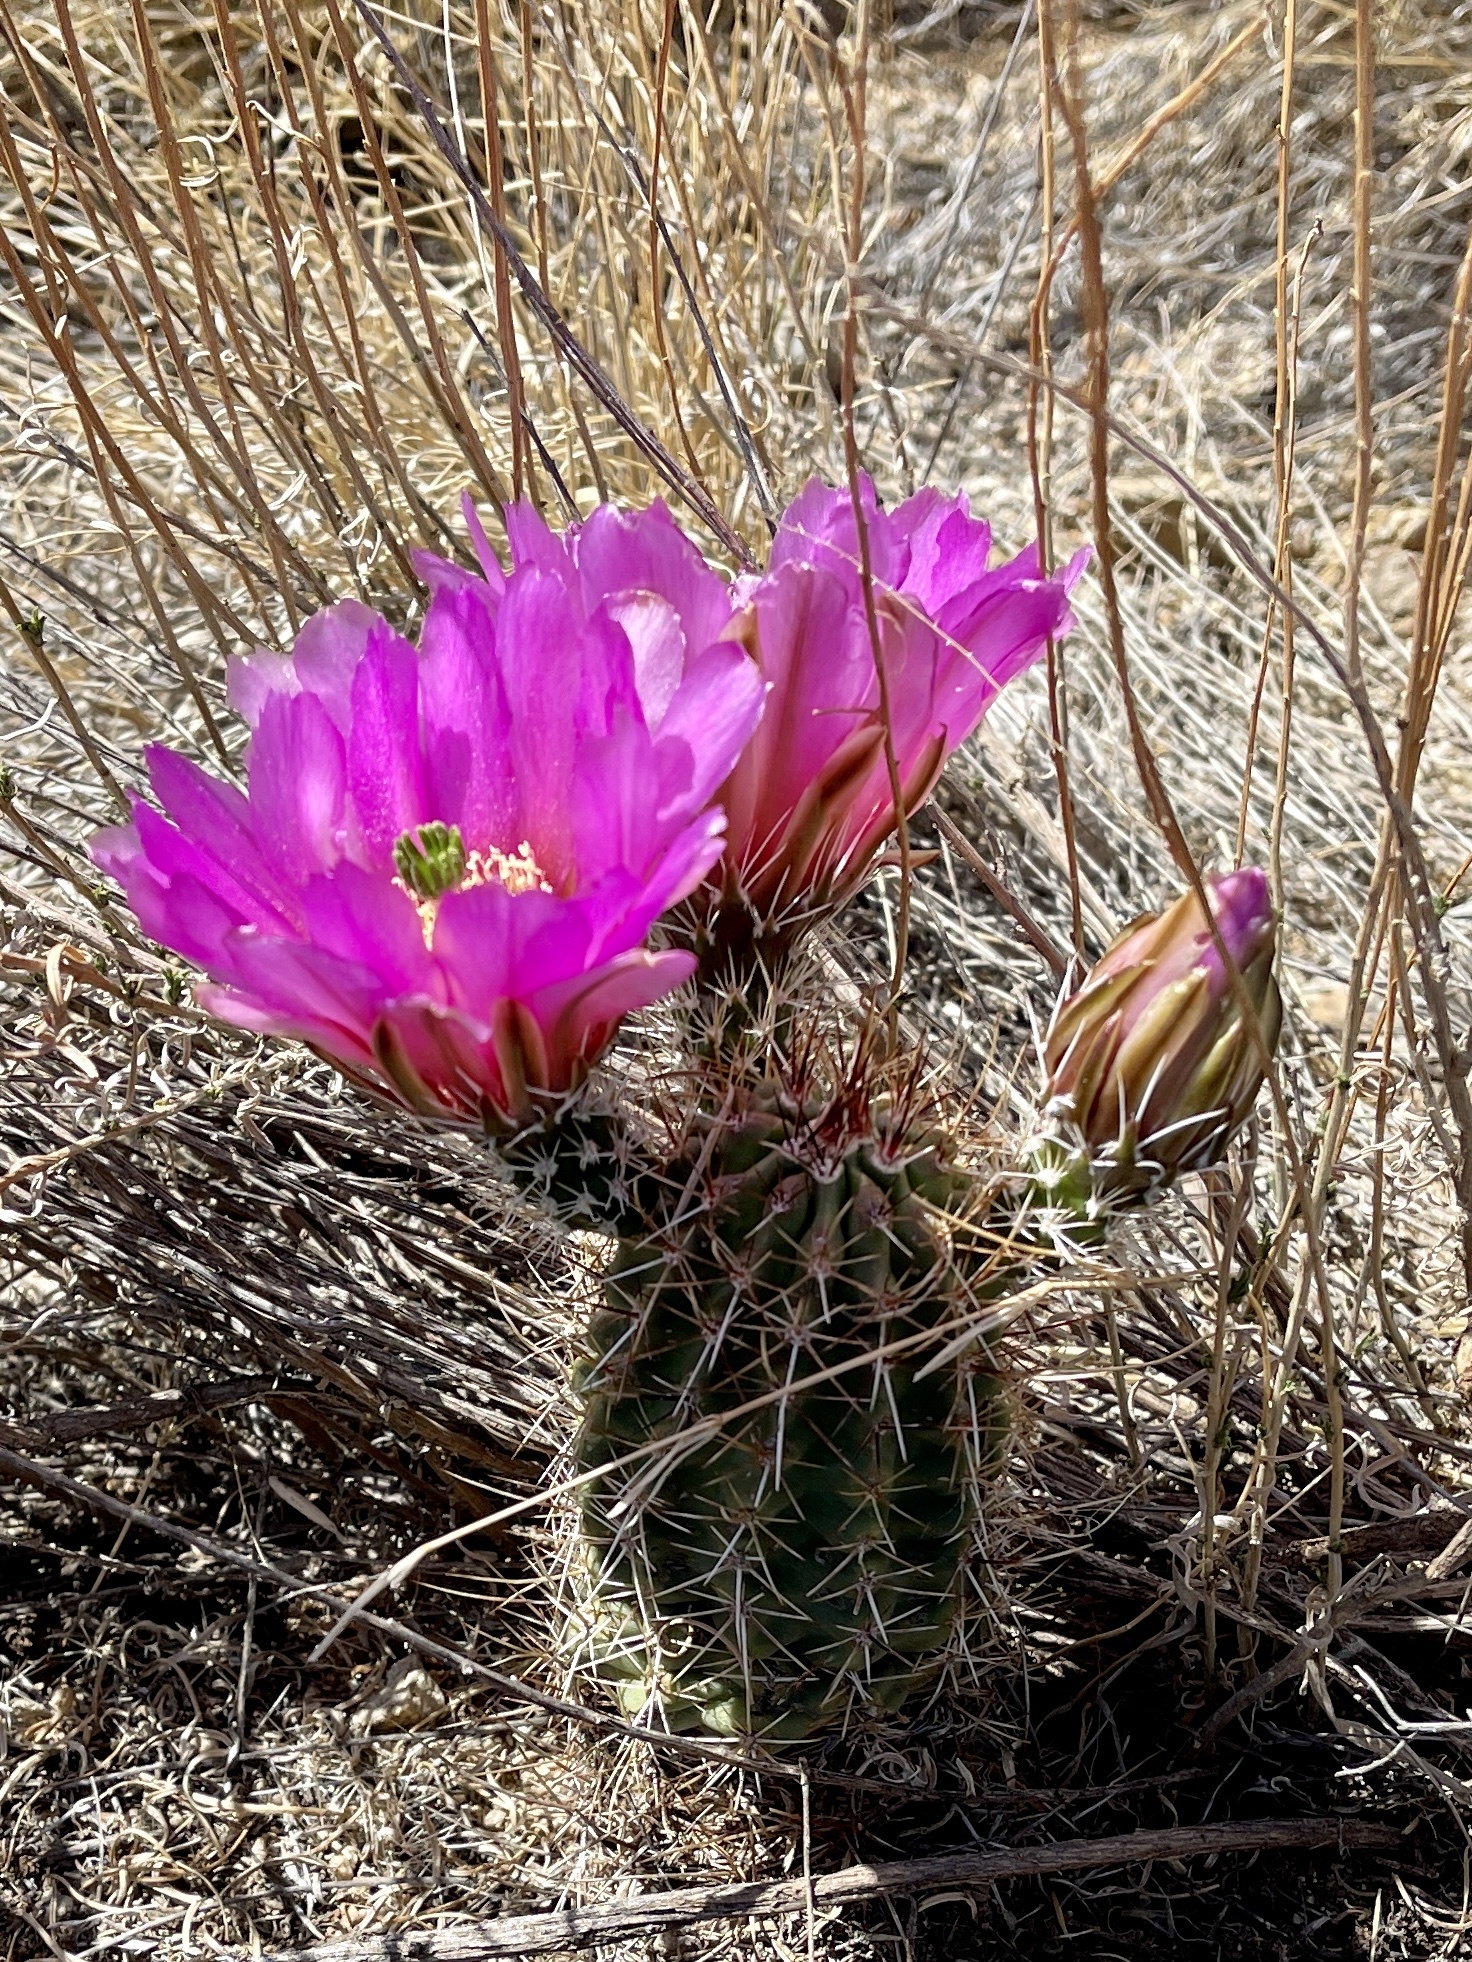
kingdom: Plantae
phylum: Tracheophyta
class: Magnoliopsida
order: Caryophyllales
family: Cactaceae
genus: Echinocereus
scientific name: Echinocereus fendleri
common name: Fendler's hedgehog cactus
